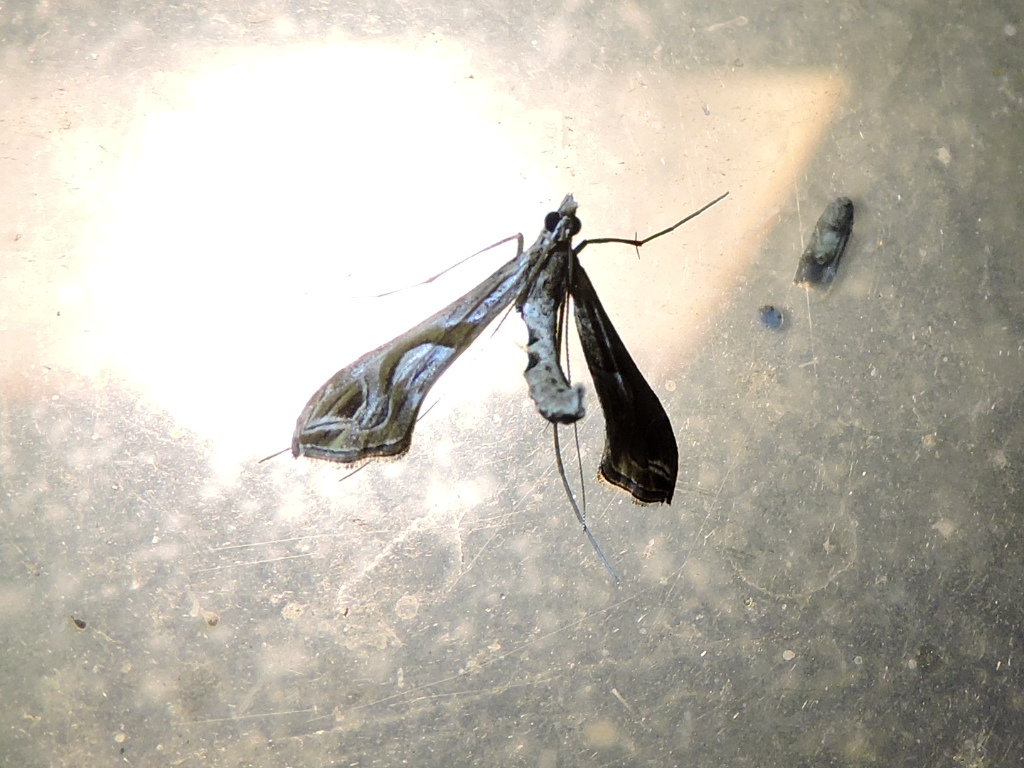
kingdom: Animalia
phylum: Arthropoda
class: Insecta
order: Lepidoptera
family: Crambidae
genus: Lineodes
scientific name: Lineodes integra
